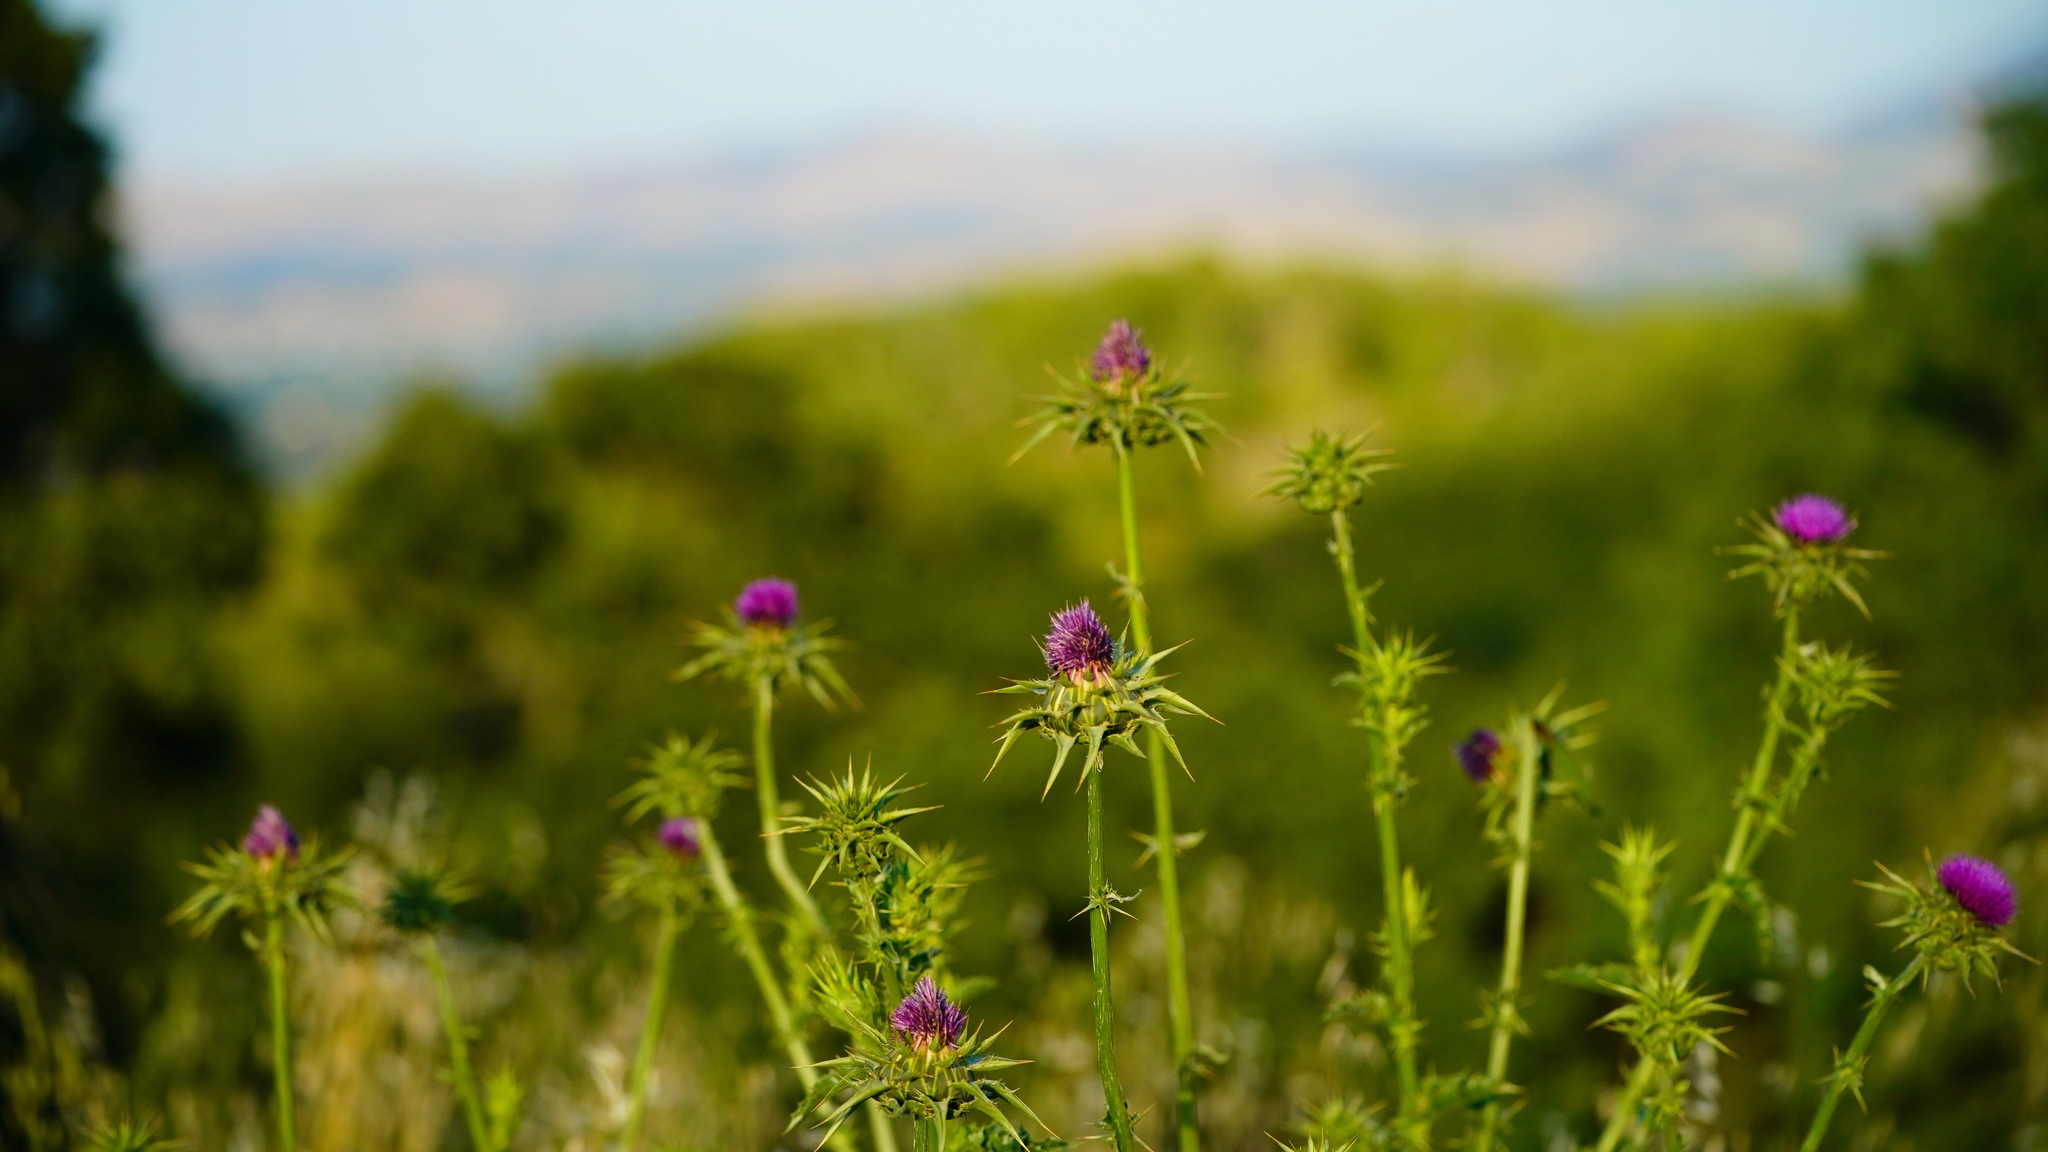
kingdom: Plantae
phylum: Tracheophyta
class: Magnoliopsida
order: Asterales
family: Asteraceae
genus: Silybum
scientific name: Silybum marianum
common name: Milk thistle
